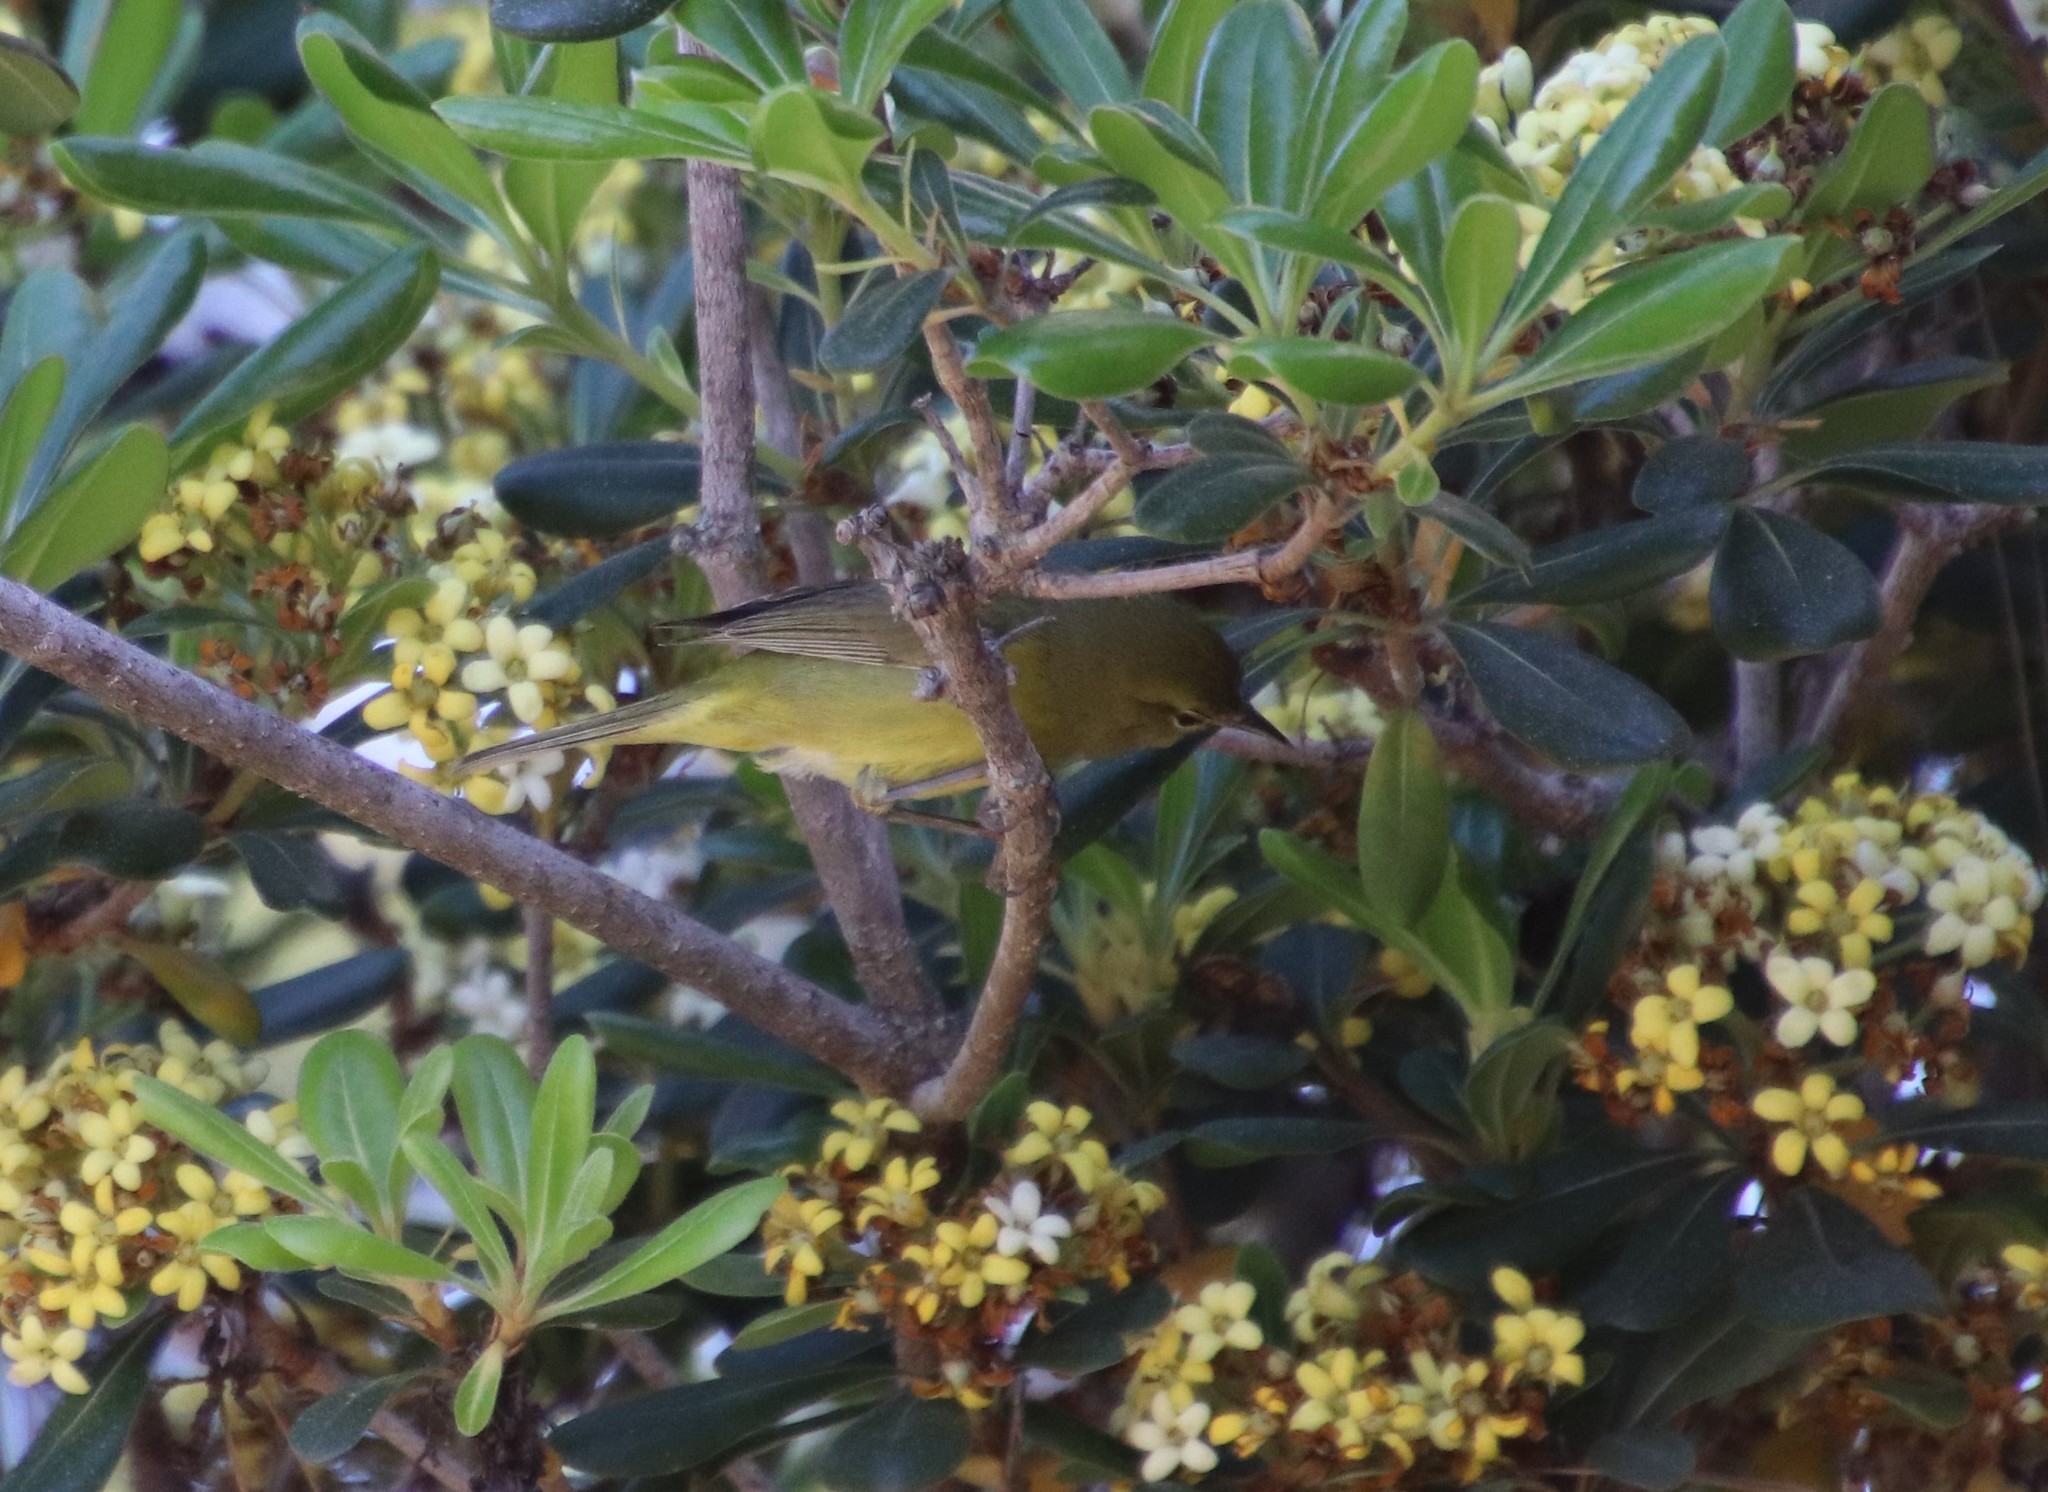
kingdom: Animalia
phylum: Chordata
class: Aves
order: Passeriformes
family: Parulidae
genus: Leiothlypis
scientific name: Leiothlypis celata
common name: Orange-crowned warbler
